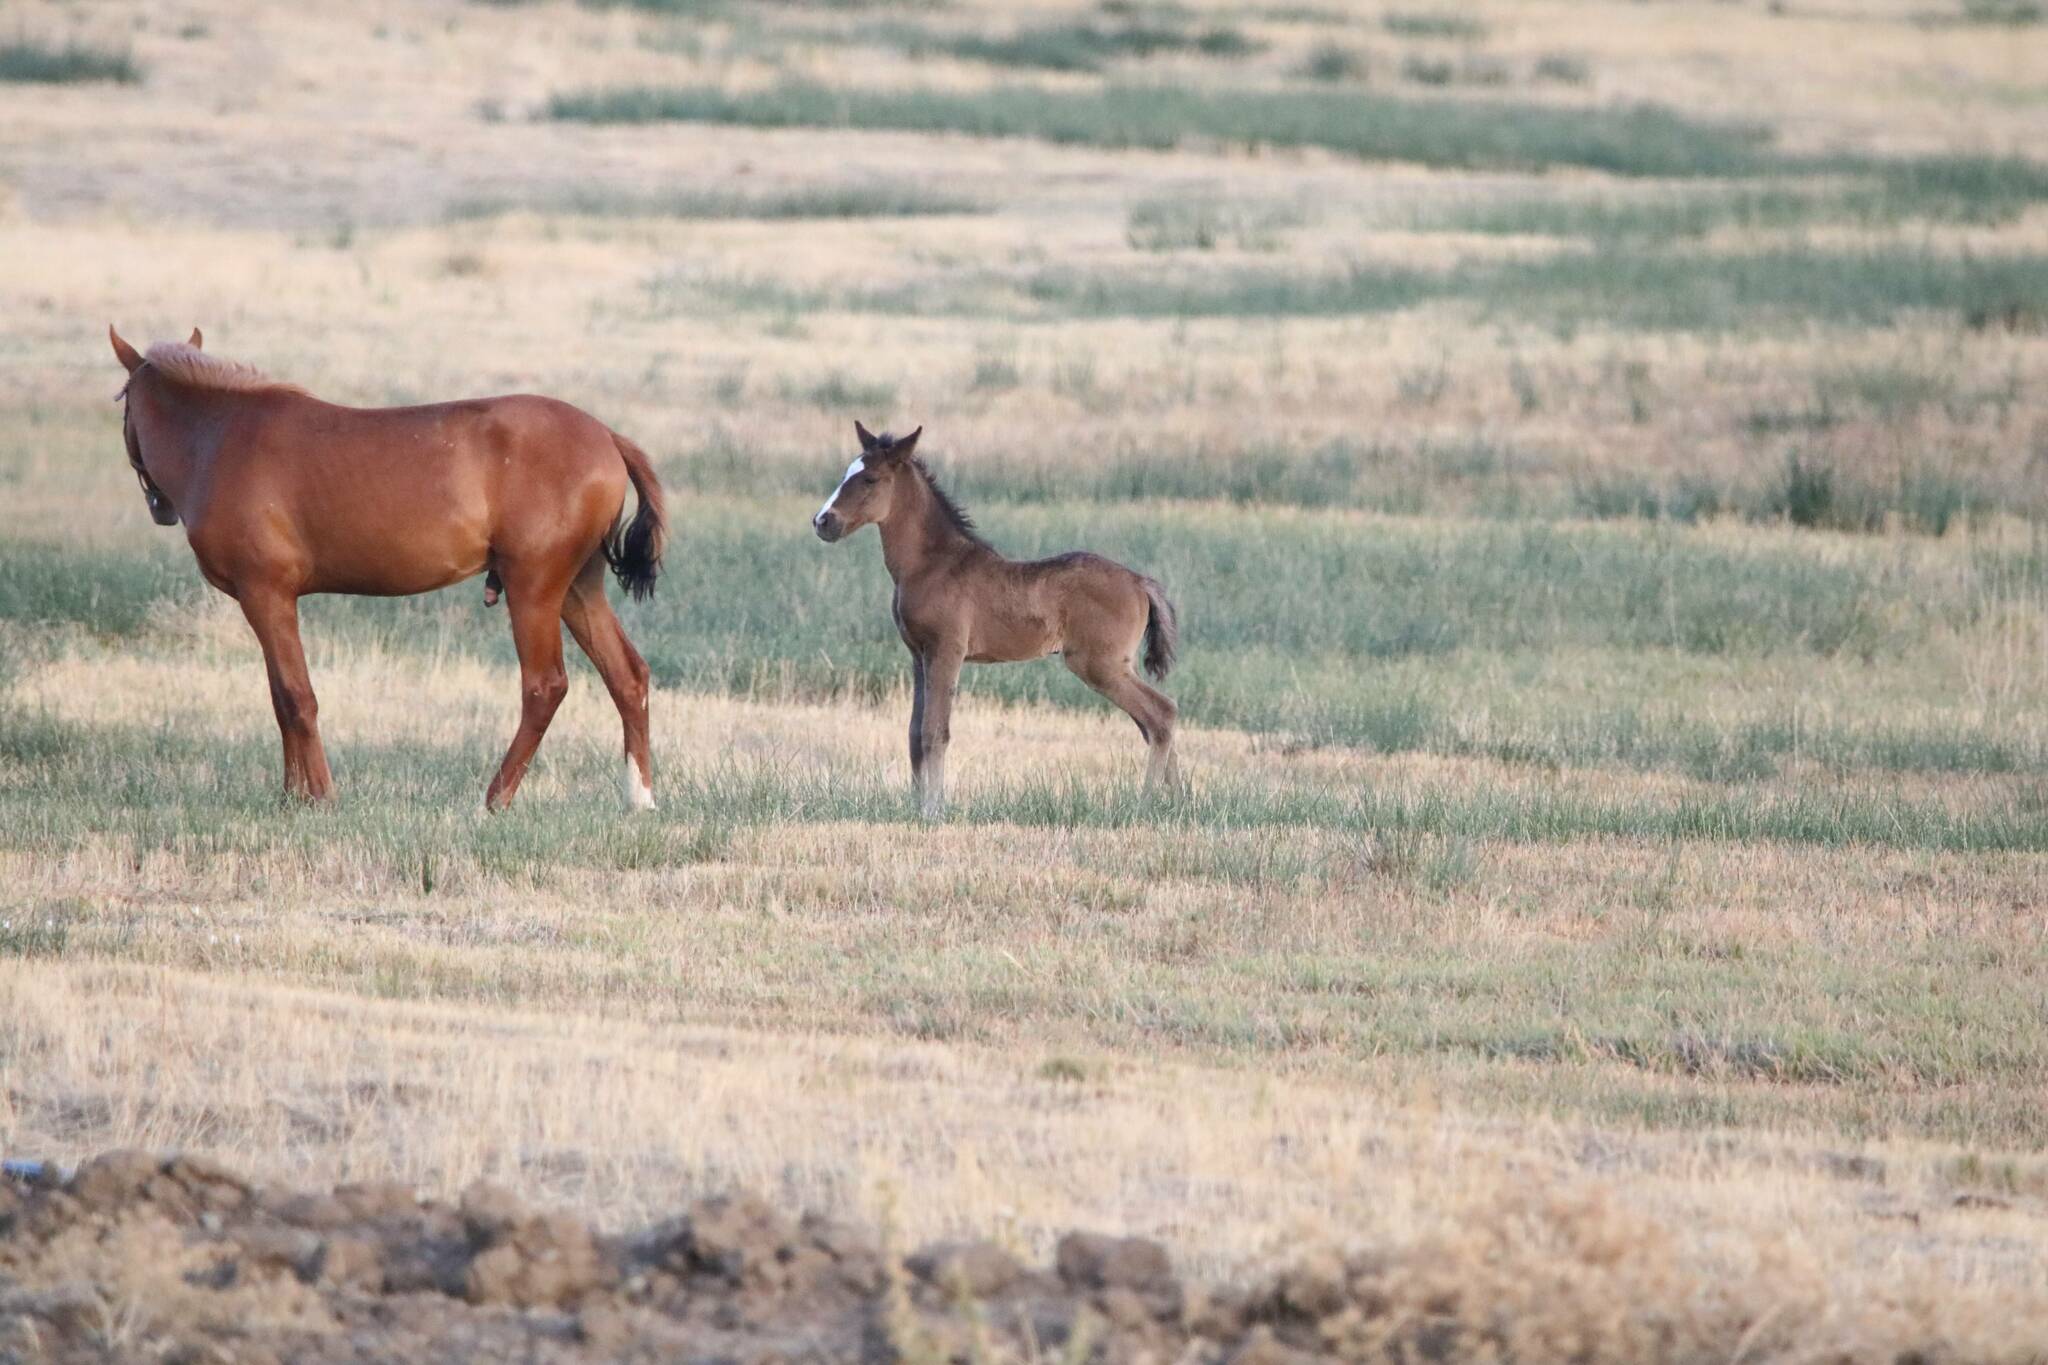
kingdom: Animalia
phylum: Chordata
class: Mammalia
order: Perissodactyla
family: Equidae
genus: Equus
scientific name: Equus caballus
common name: Horse
